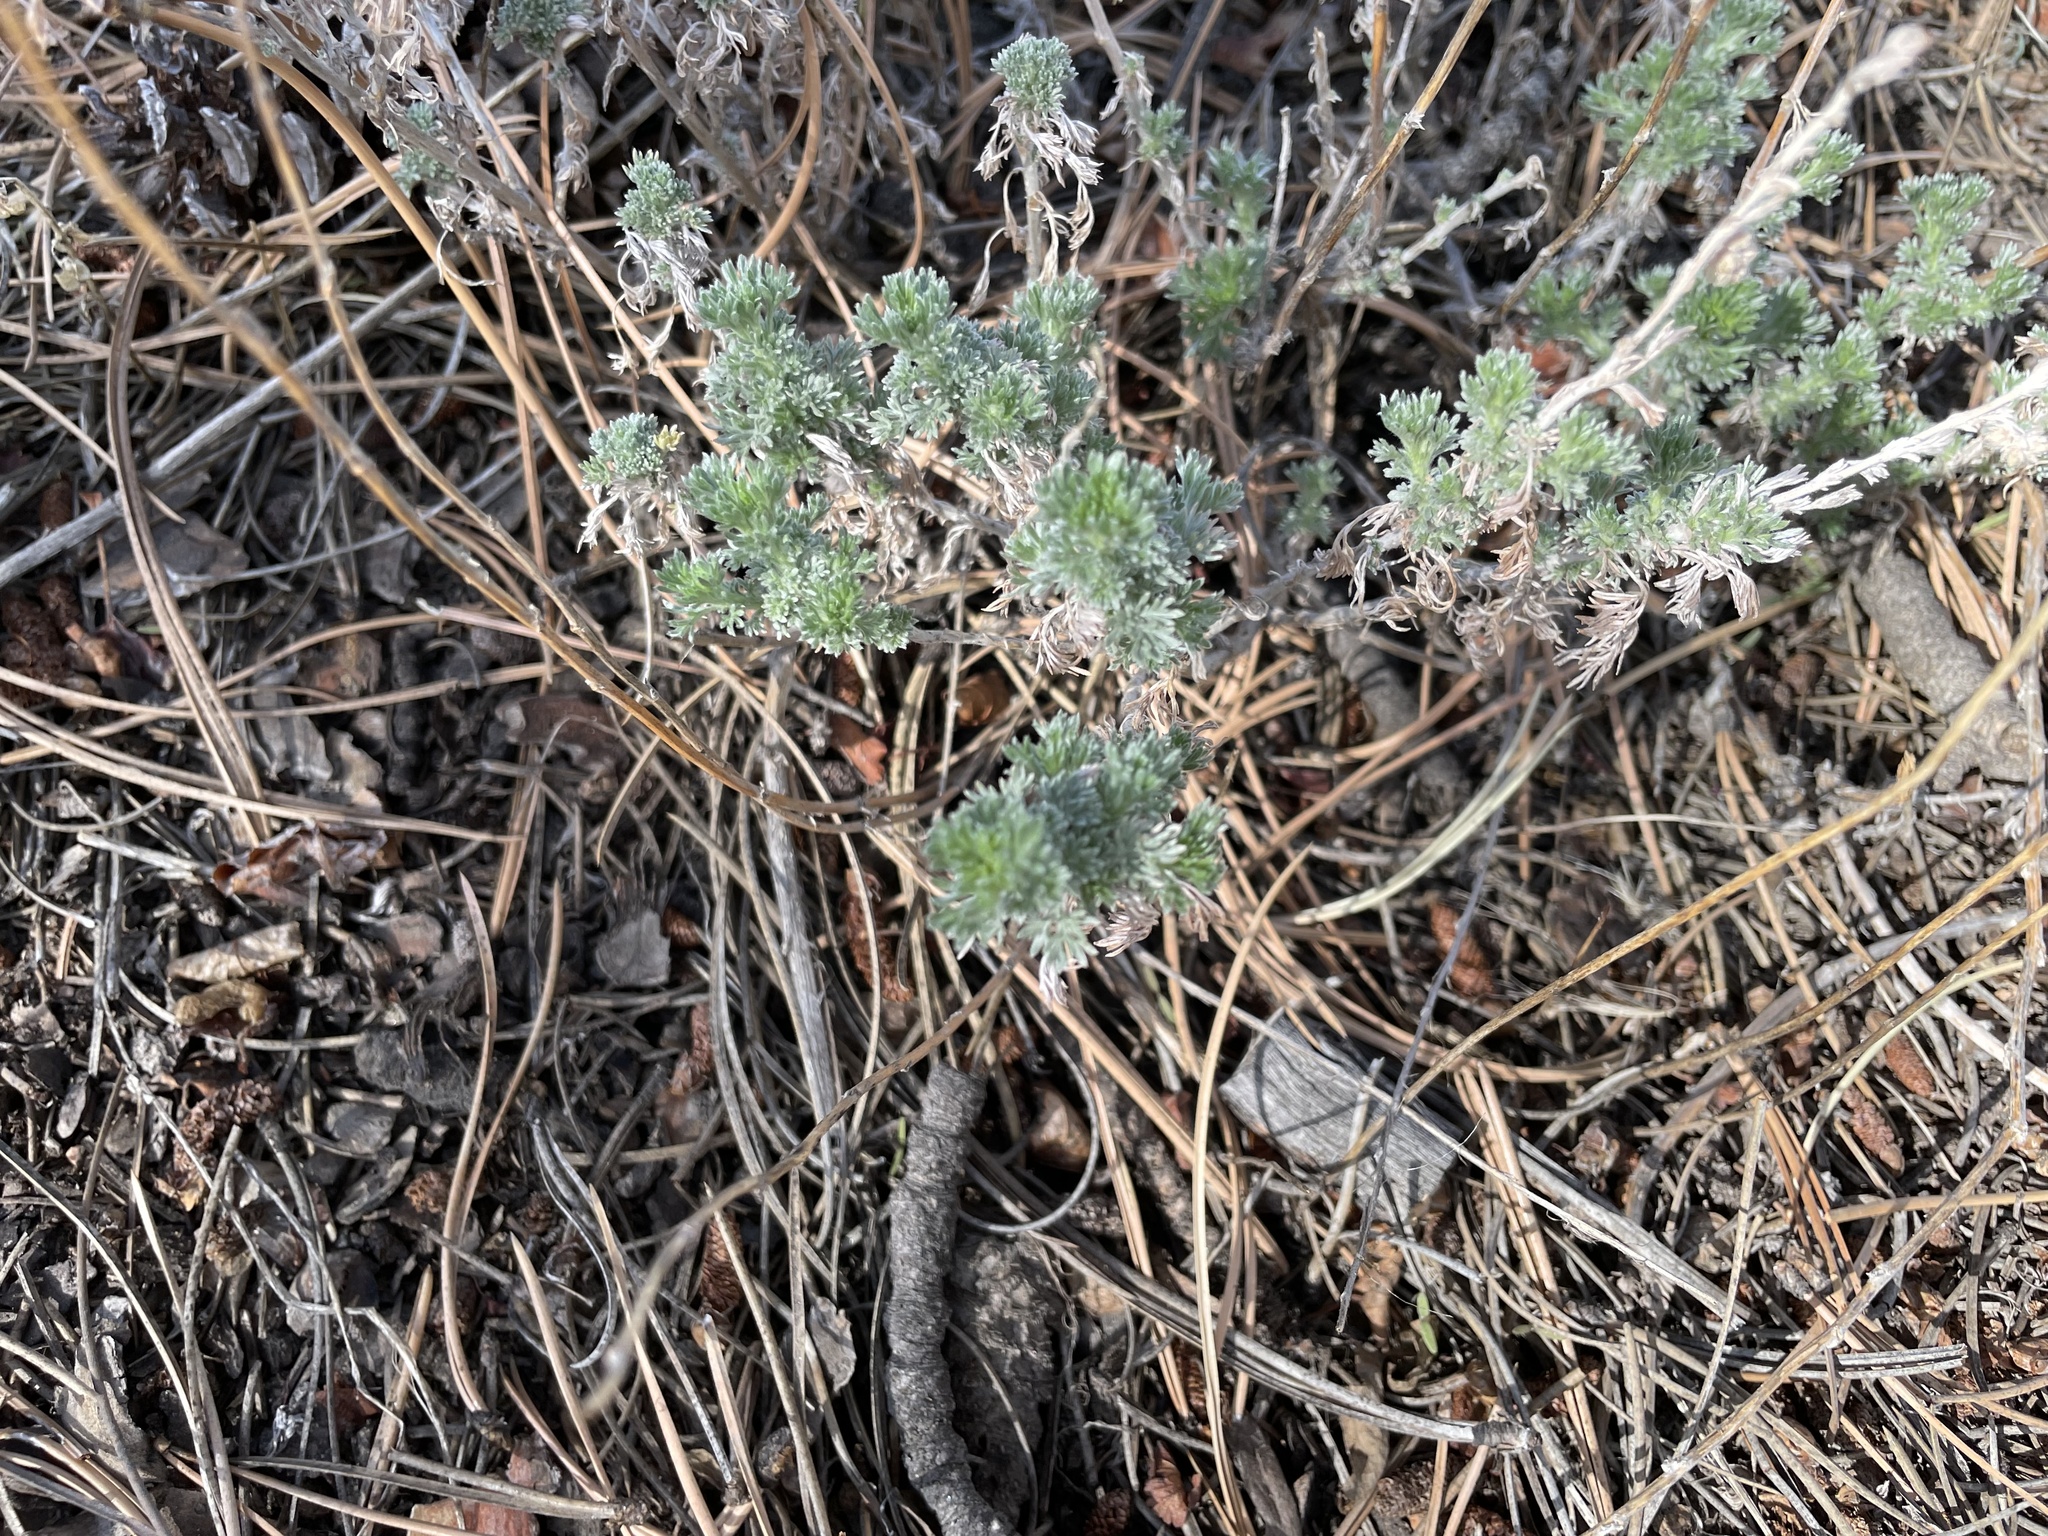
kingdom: Plantae
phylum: Tracheophyta
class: Magnoliopsida
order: Asterales
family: Asteraceae
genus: Artemisia
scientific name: Artemisia frigida
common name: Prairie sagewort
